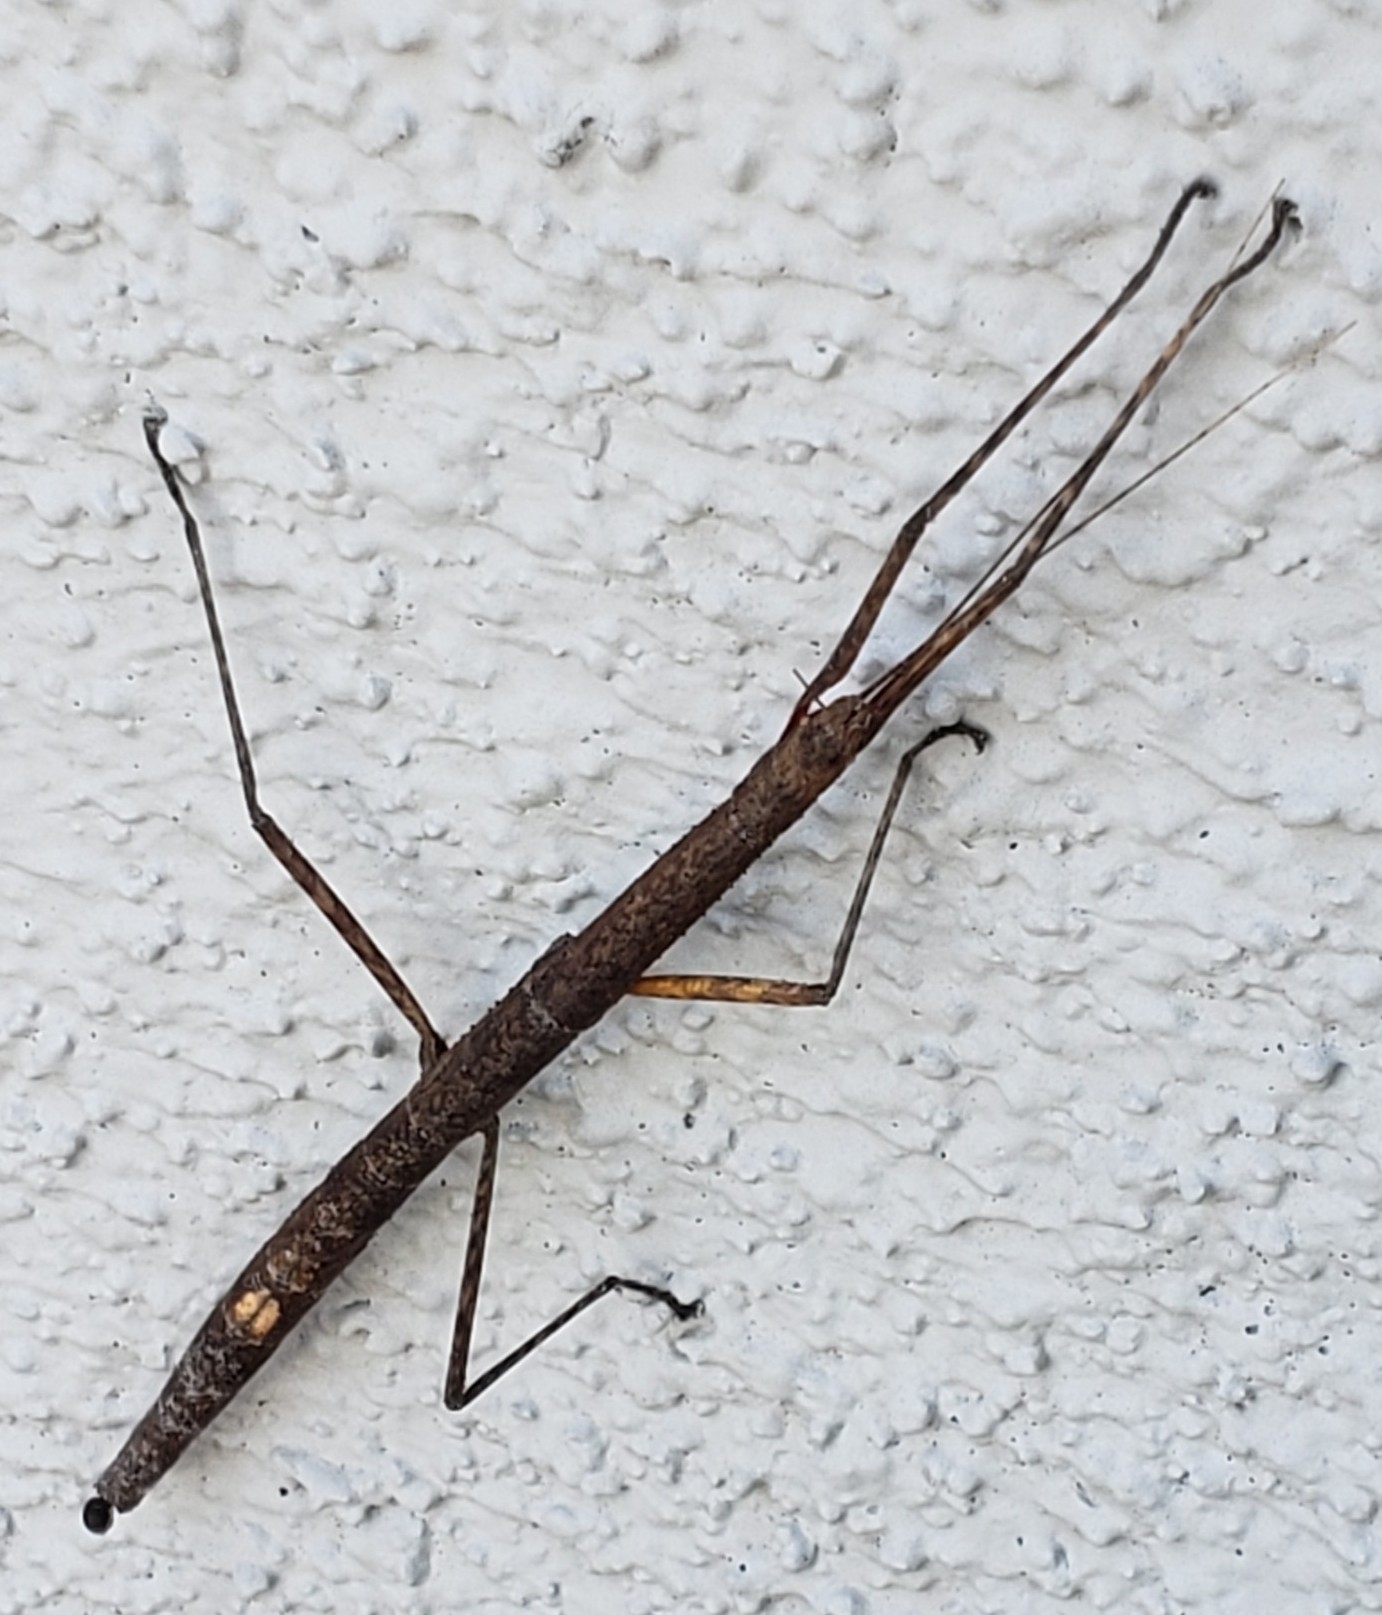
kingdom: Animalia
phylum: Arthropoda
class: Insecta
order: Phasmida
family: Lonchodidae
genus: Carausius
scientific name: Carausius morosus
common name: Indian stick insect
